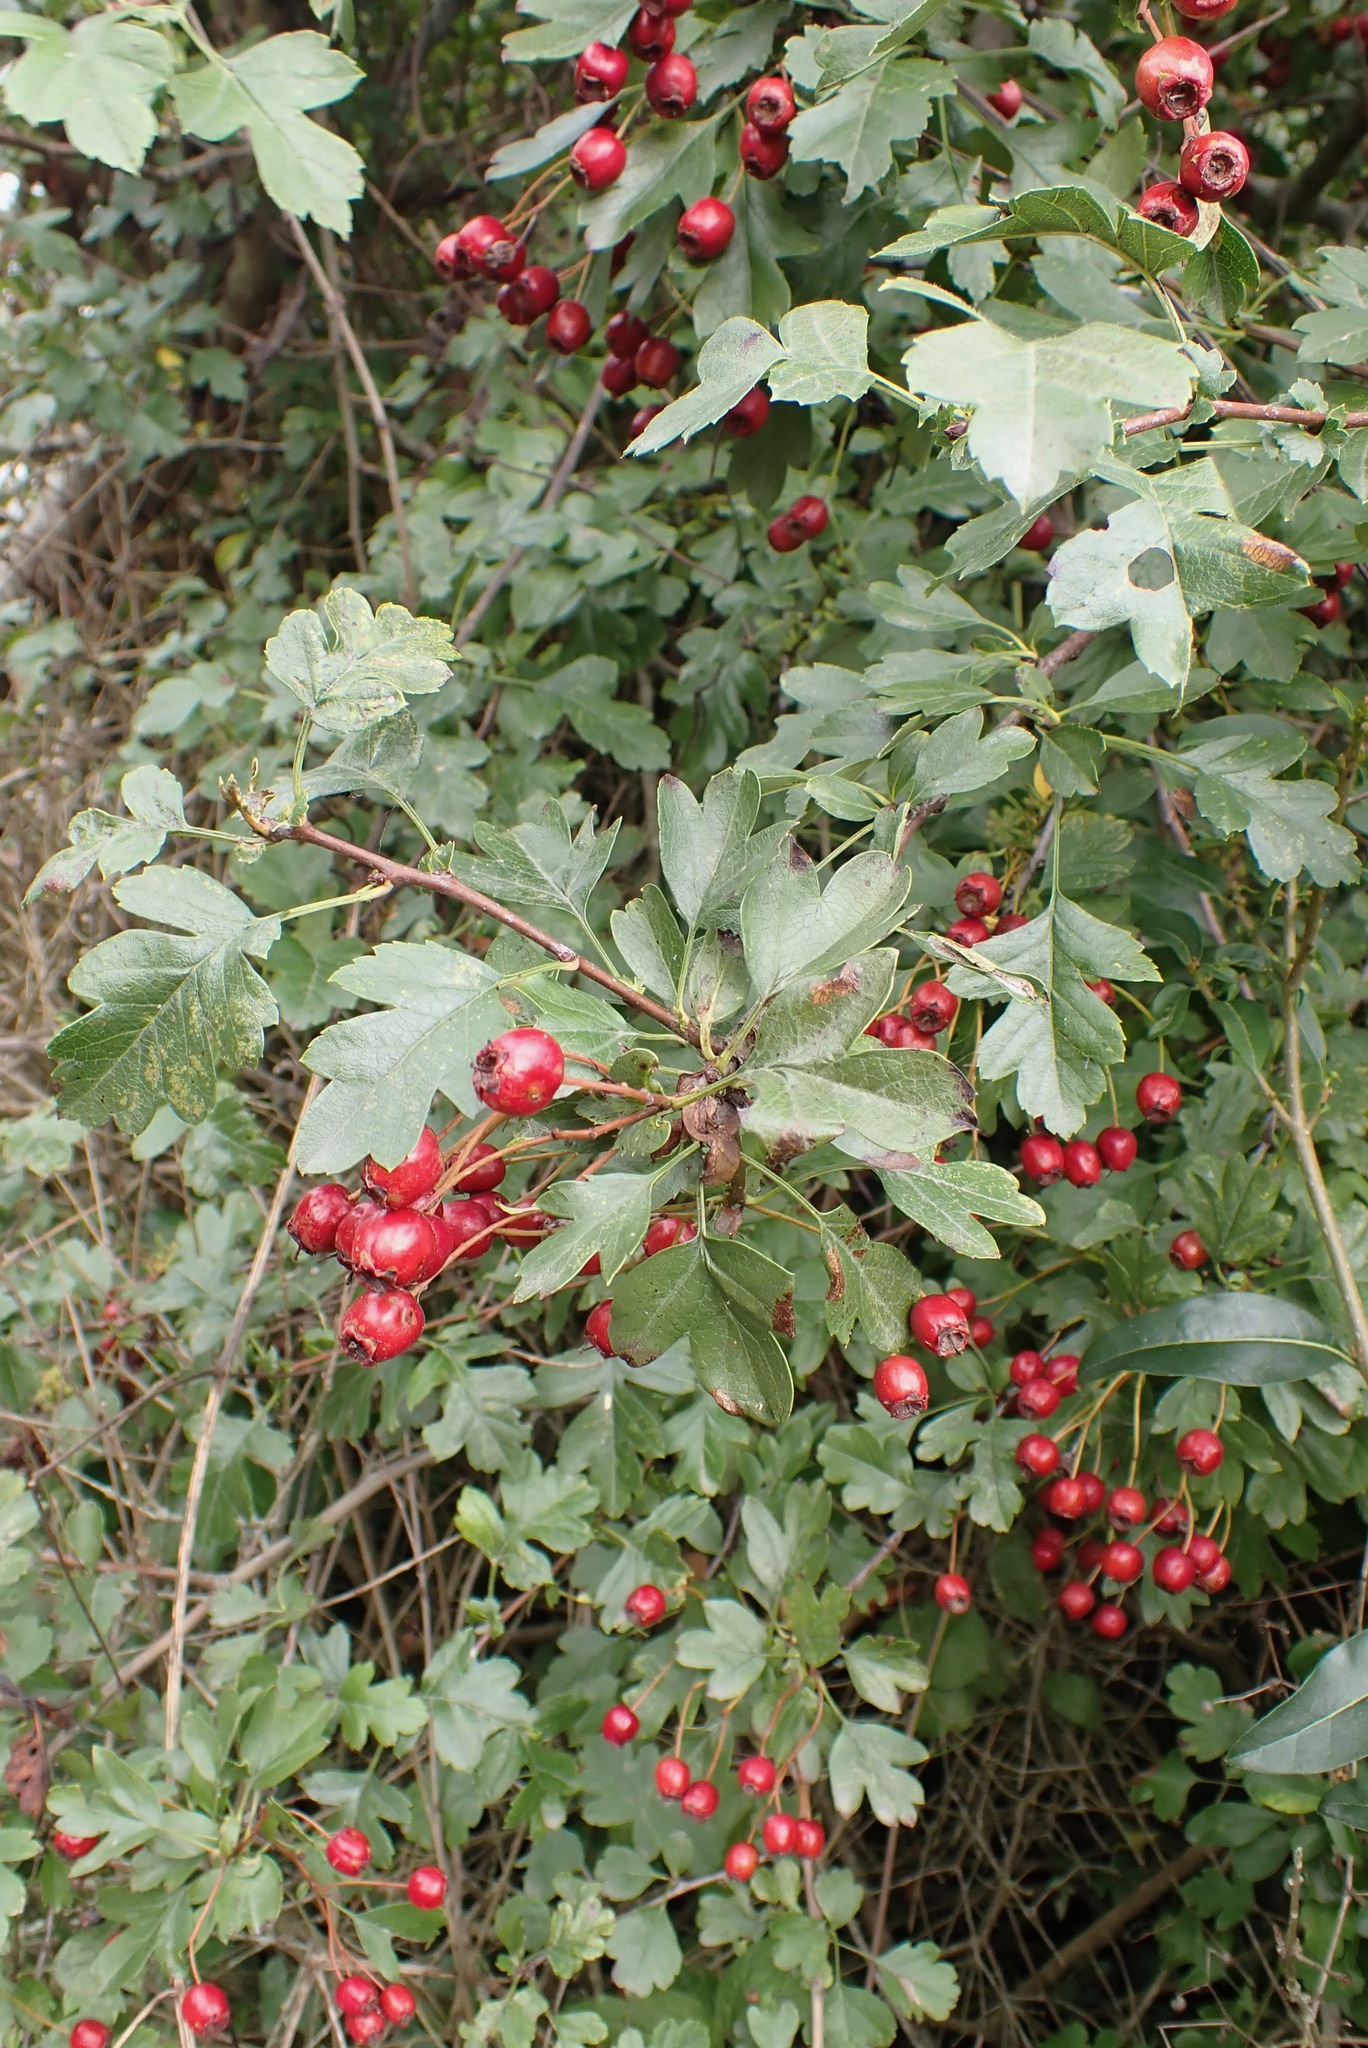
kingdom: Plantae
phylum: Tracheophyta
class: Magnoliopsida
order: Rosales
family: Rosaceae
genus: Crataegus
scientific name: Crataegus monogyna
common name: Hawthorn
